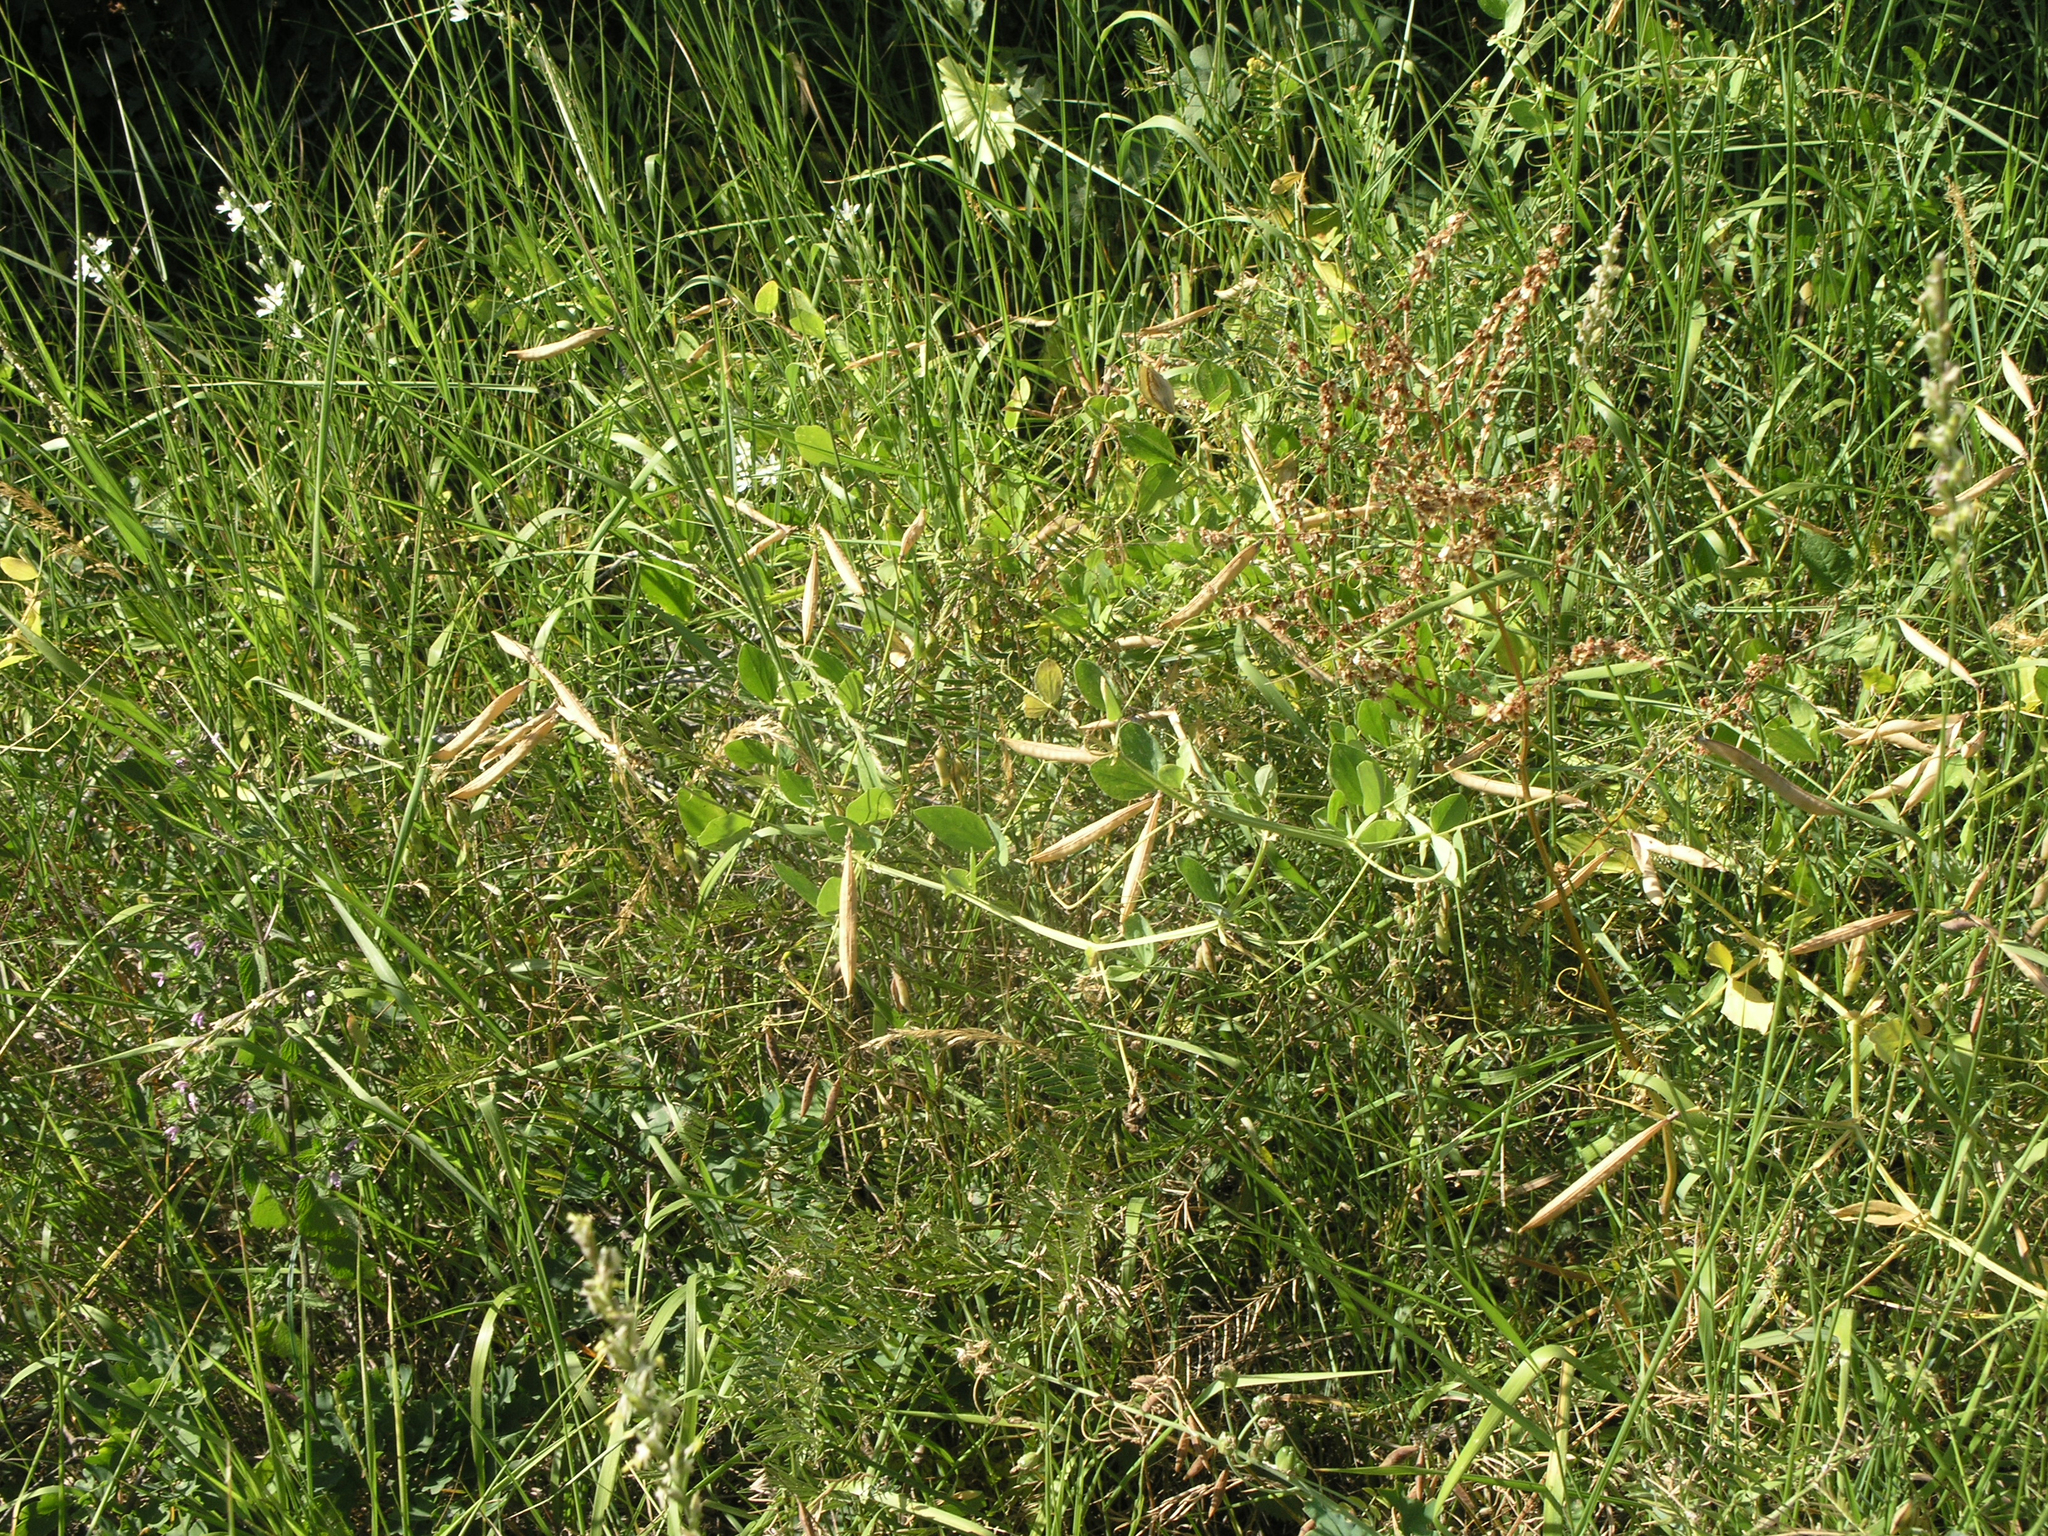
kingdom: Plantae
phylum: Tracheophyta
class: Magnoliopsida
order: Fabales
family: Fabaceae
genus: Lathyrus
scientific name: Lathyrus miniatus
